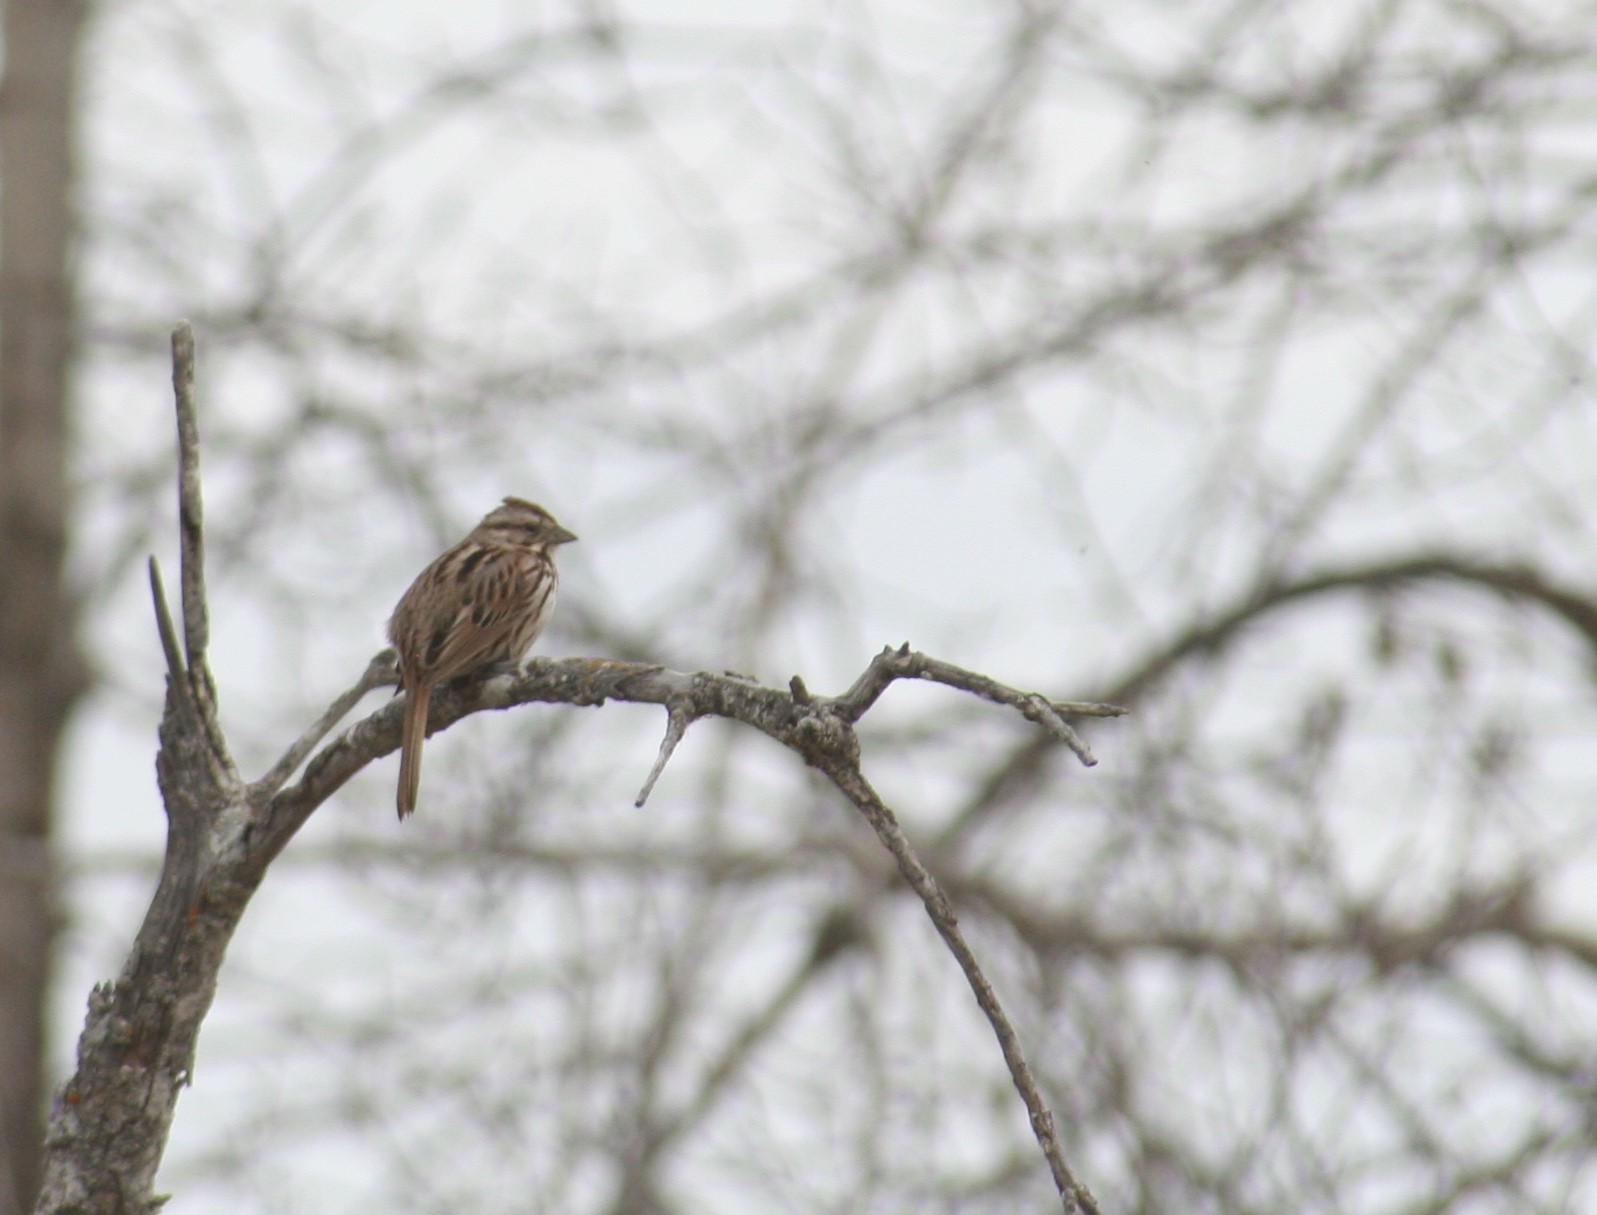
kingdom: Animalia
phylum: Chordata
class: Aves
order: Passeriformes
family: Passerellidae
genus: Melospiza
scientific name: Melospiza melodia
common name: Song sparrow
